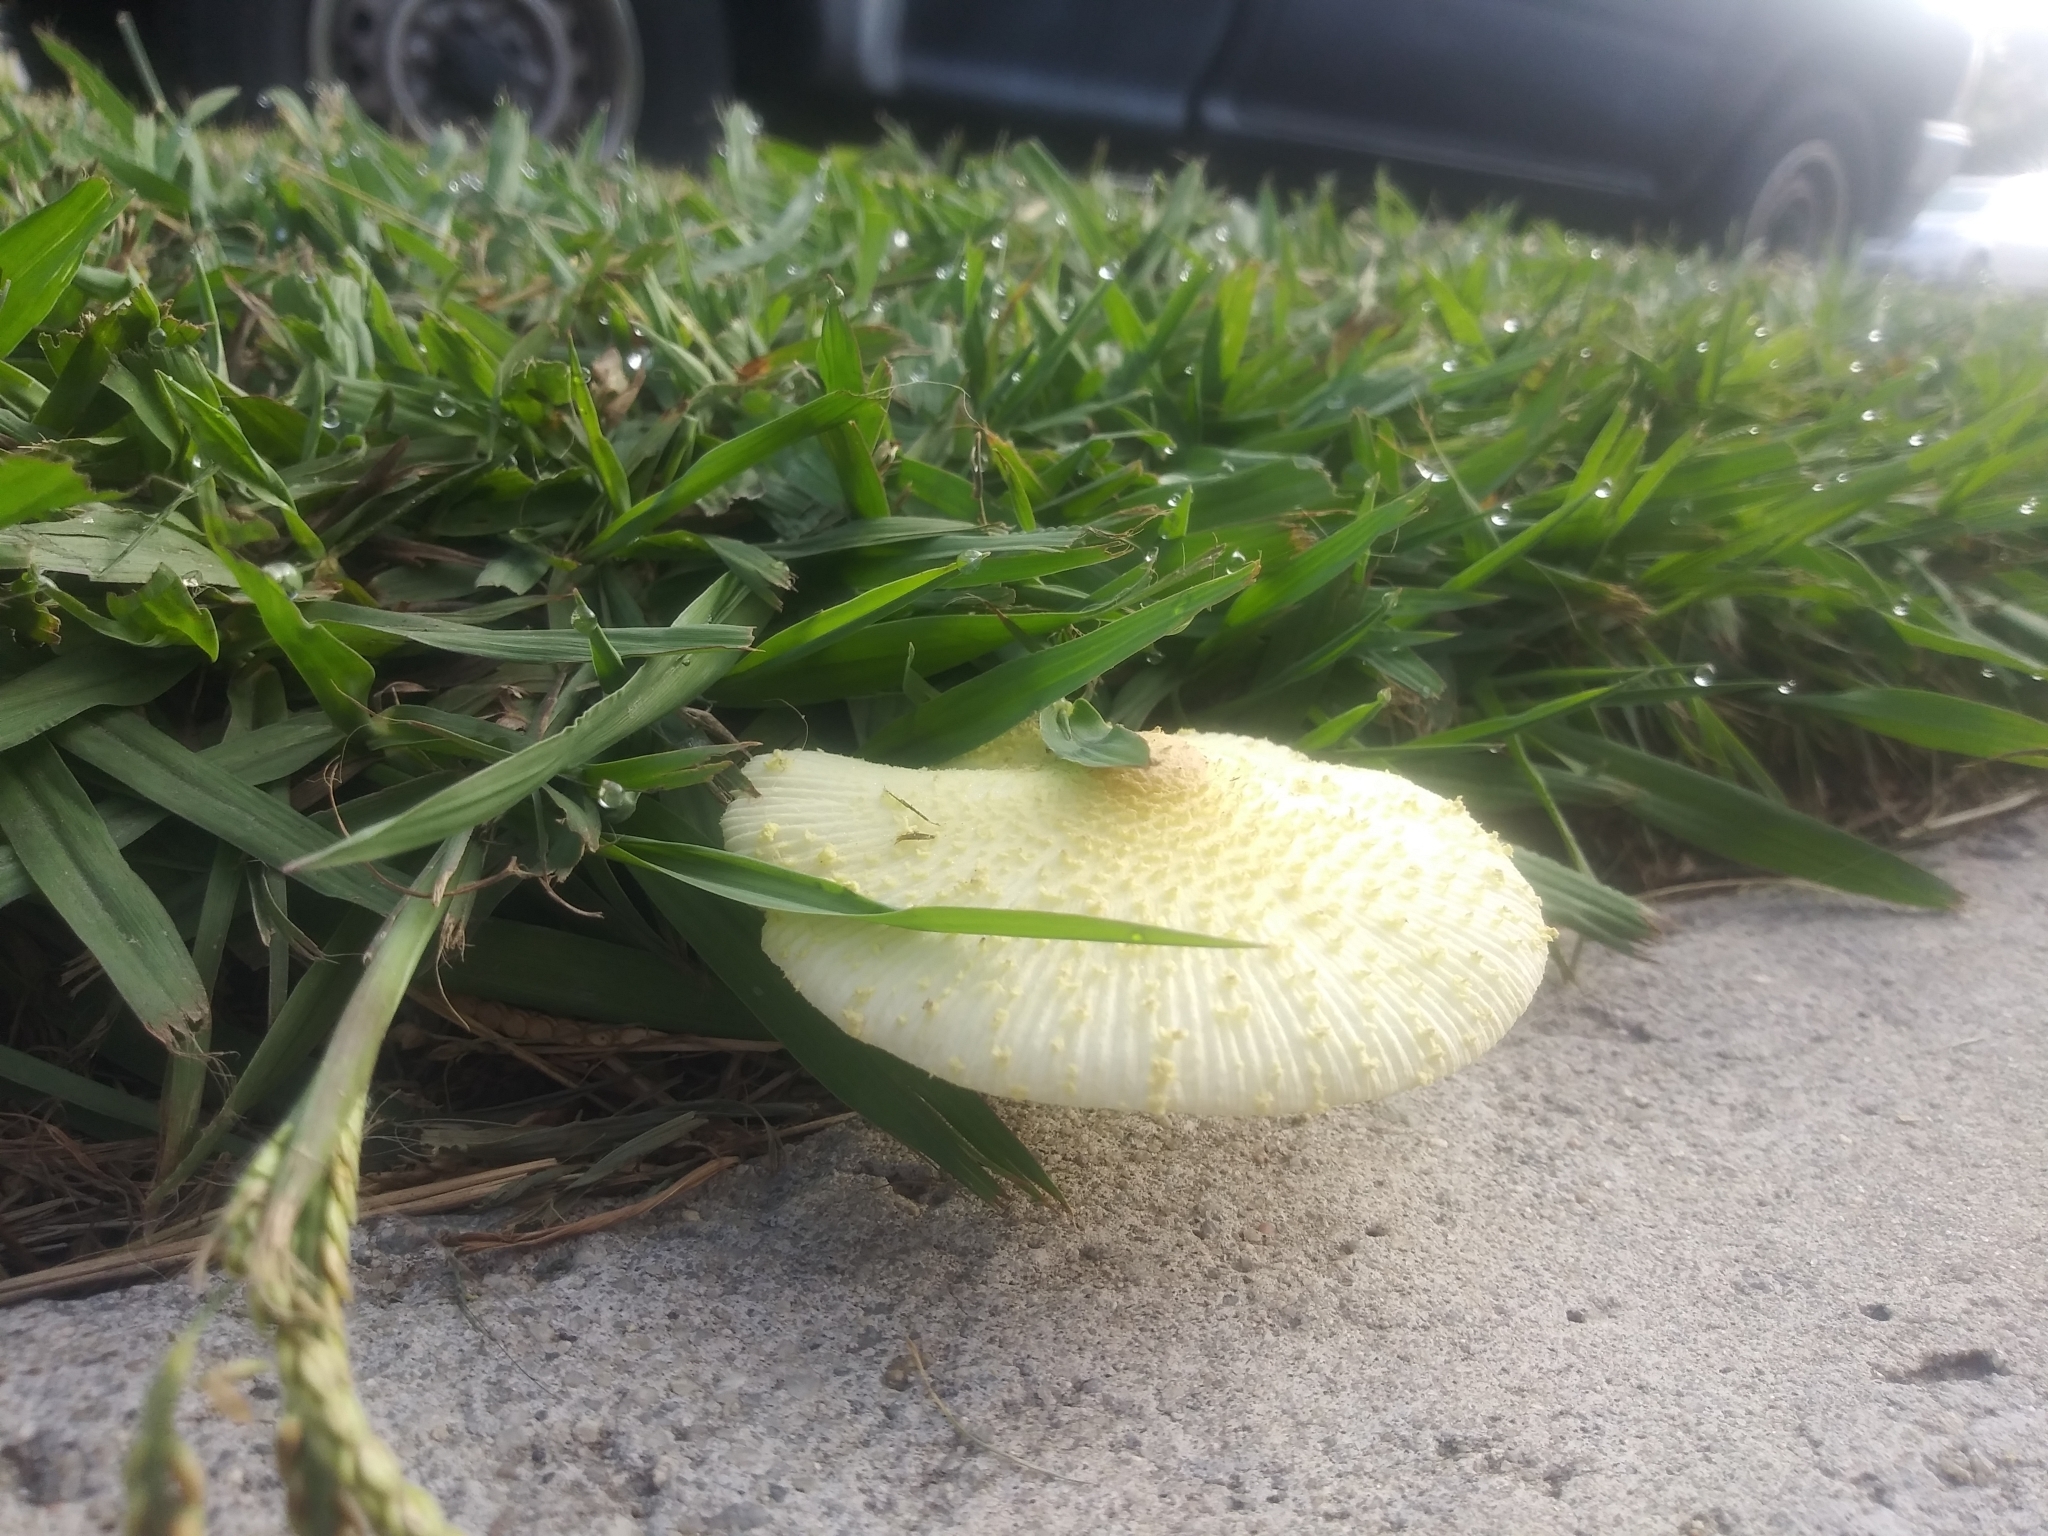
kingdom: Fungi
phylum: Basidiomycota
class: Agaricomycetes
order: Agaricales
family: Agaricaceae
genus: Leucocoprinus
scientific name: Leucocoprinus birnbaumii
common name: Plantpot dapperling
